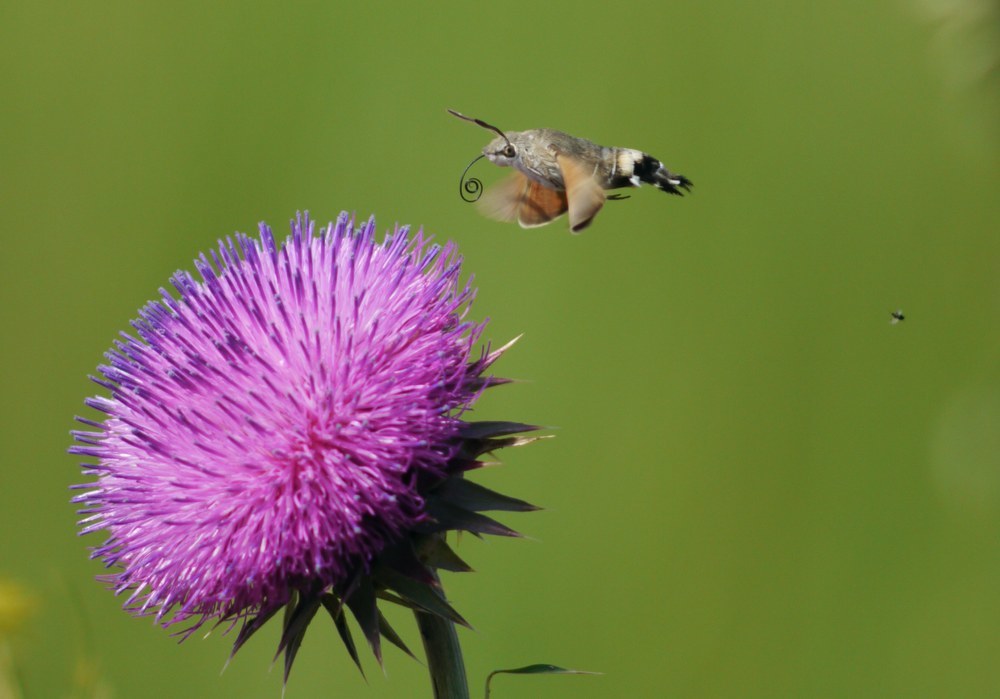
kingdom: Animalia
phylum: Arthropoda
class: Insecta
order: Lepidoptera
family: Sphingidae
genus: Macroglossum
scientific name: Macroglossum stellatarum
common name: Humming-bird hawk-moth
